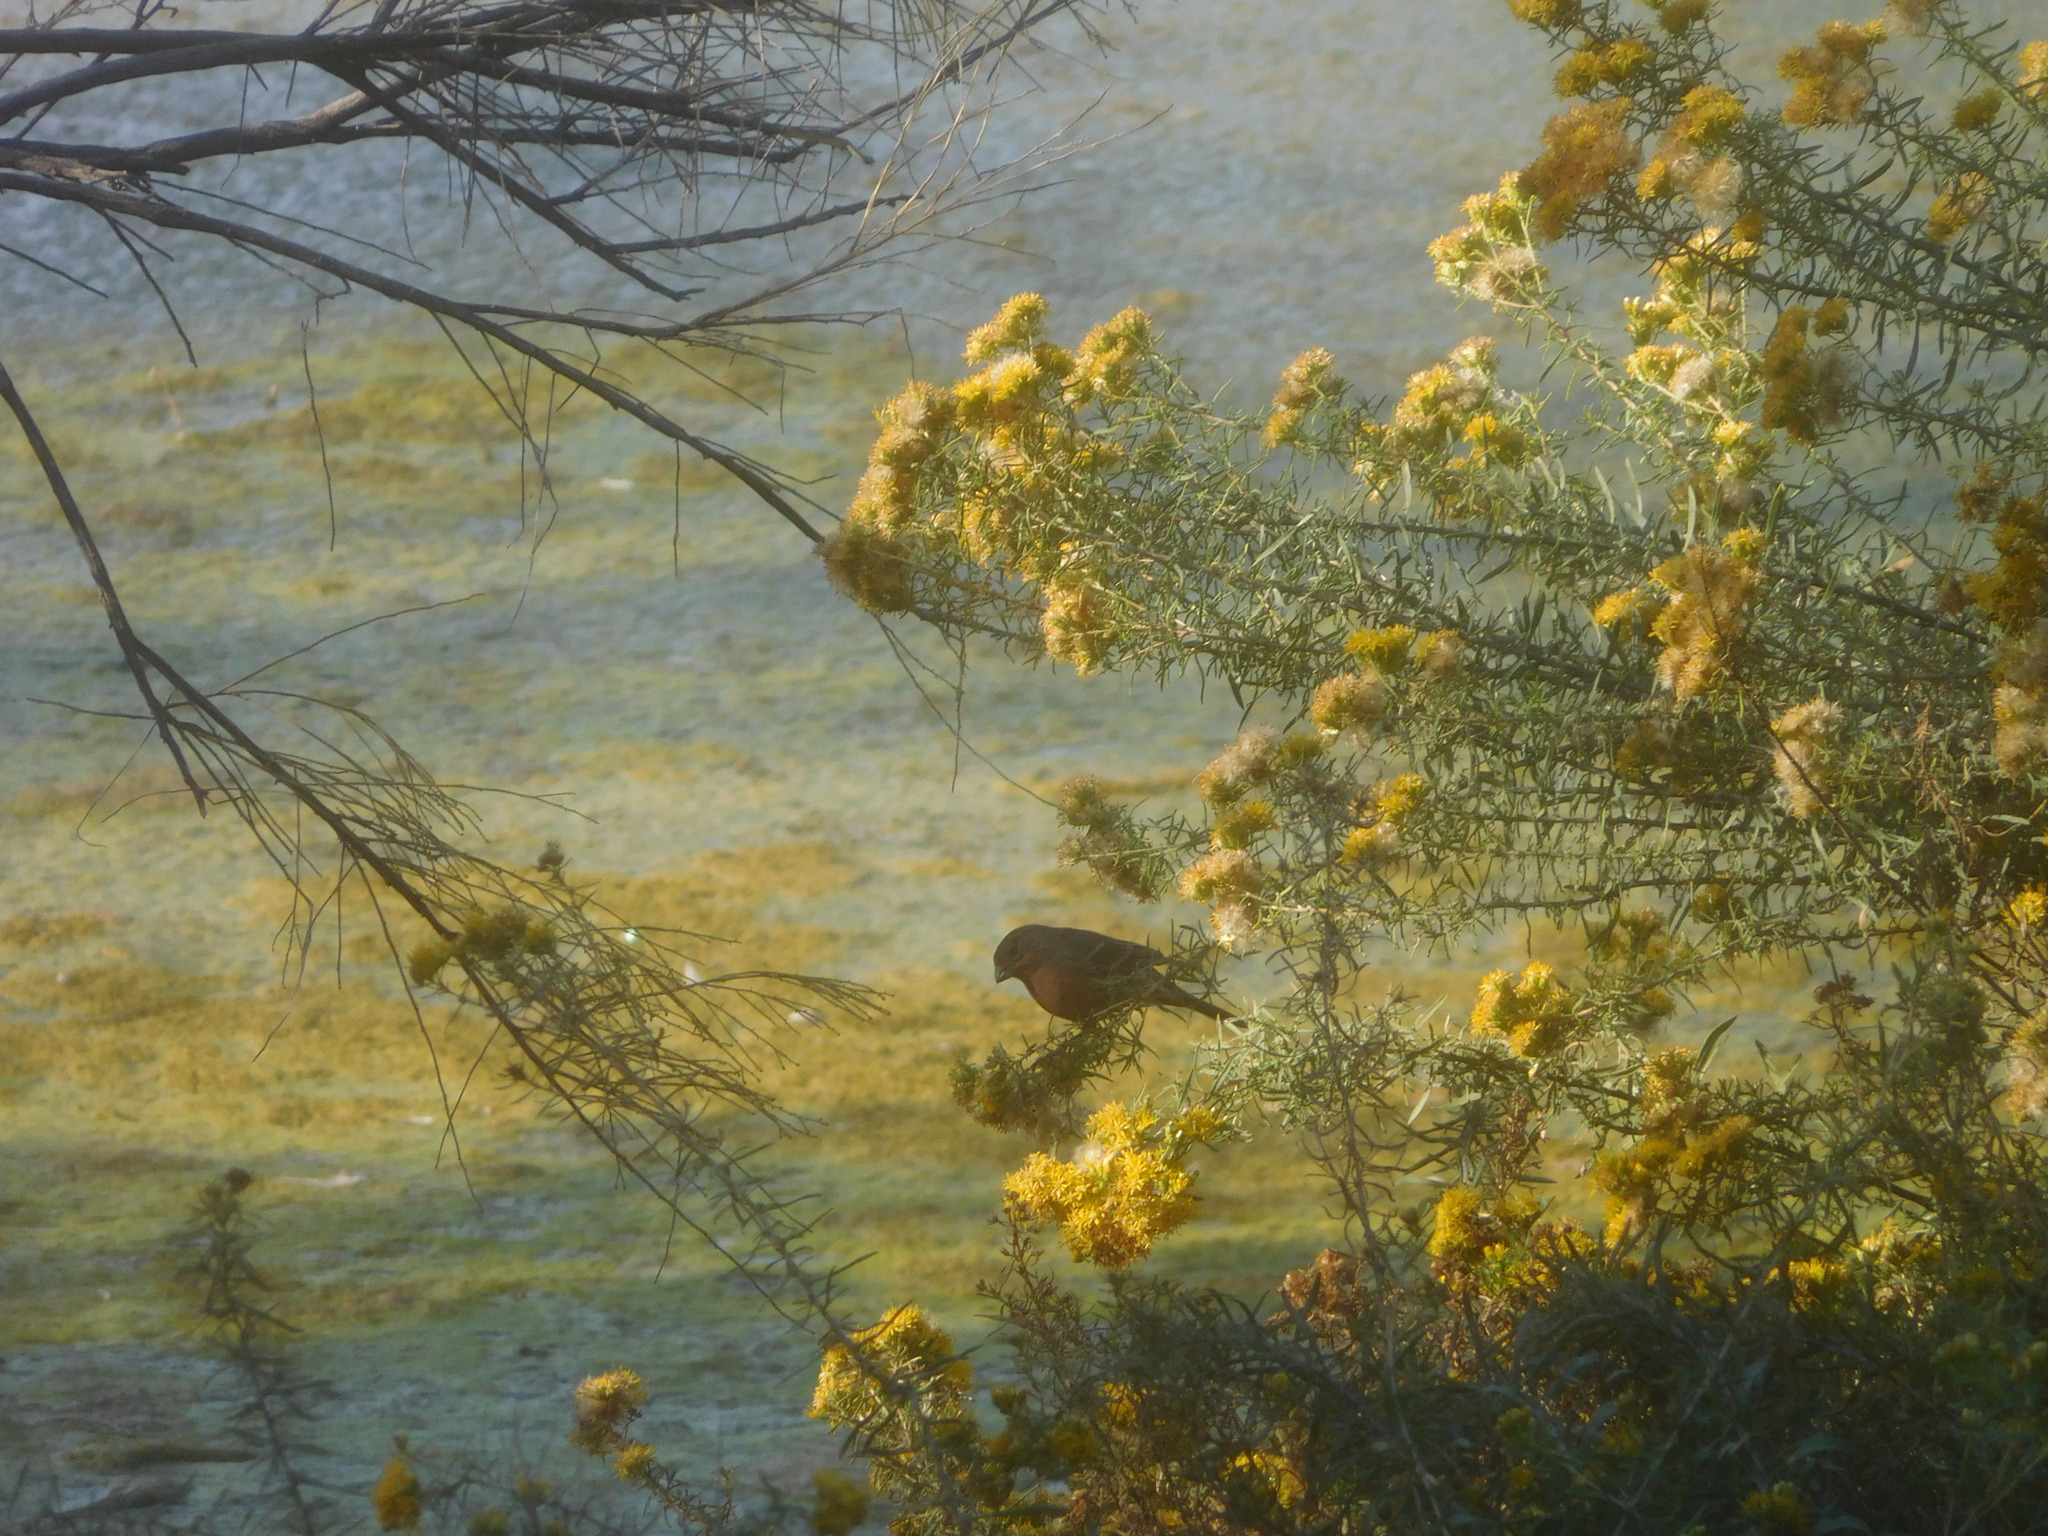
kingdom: Animalia
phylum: Chordata
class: Aves
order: Passeriformes
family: Fringillidae
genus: Haemorhous
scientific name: Haemorhous mexicanus
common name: House finch
